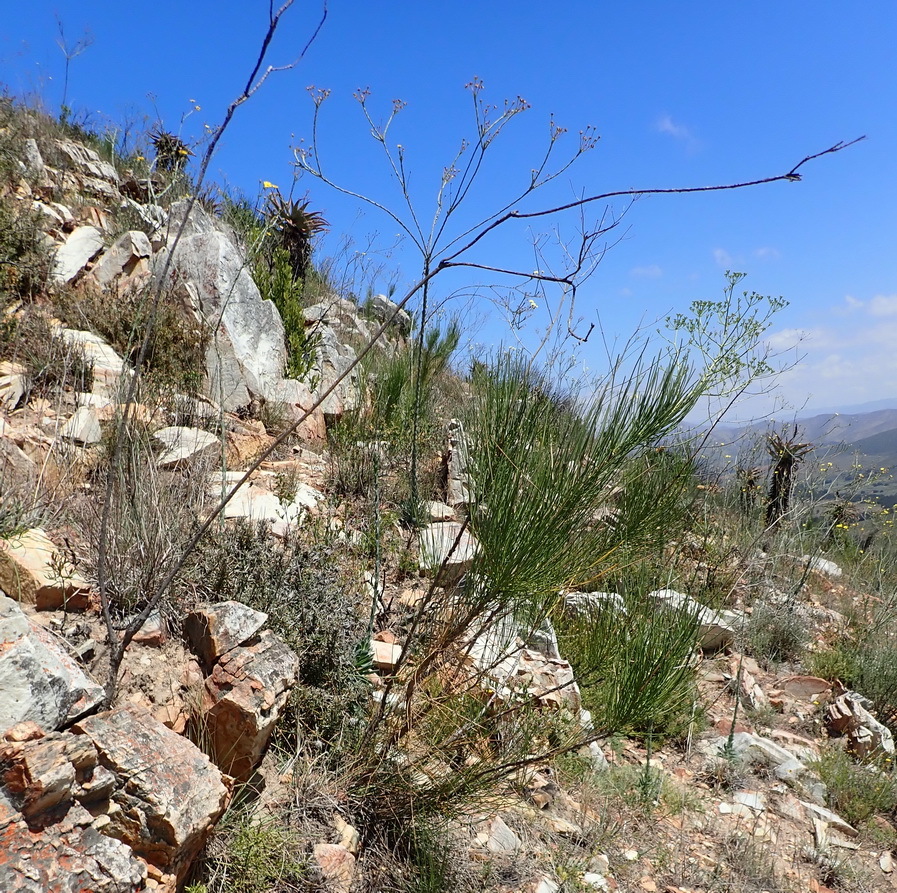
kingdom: Plantae
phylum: Tracheophyta
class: Magnoliopsida
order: Apiales
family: Apiaceae
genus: Anginon
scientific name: Anginon difforme
